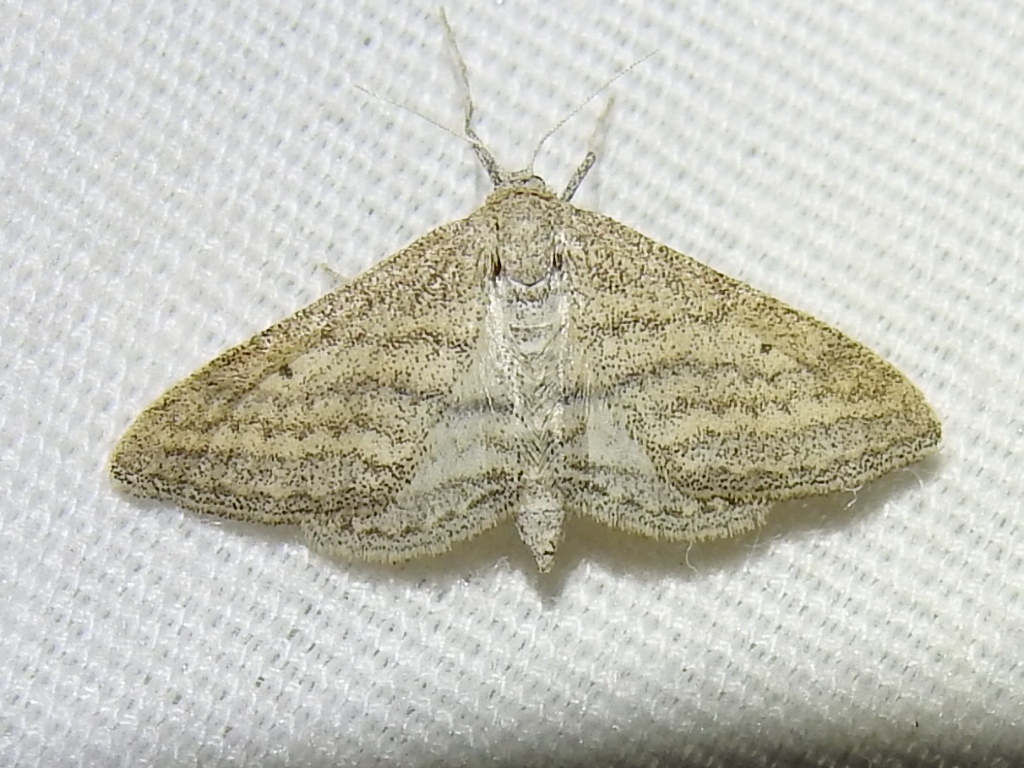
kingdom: Animalia
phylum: Arthropoda
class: Insecta
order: Lepidoptera
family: Geometridae
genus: Lobocleta
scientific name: Lobocleta plemyraria
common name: Straight-lined wave
